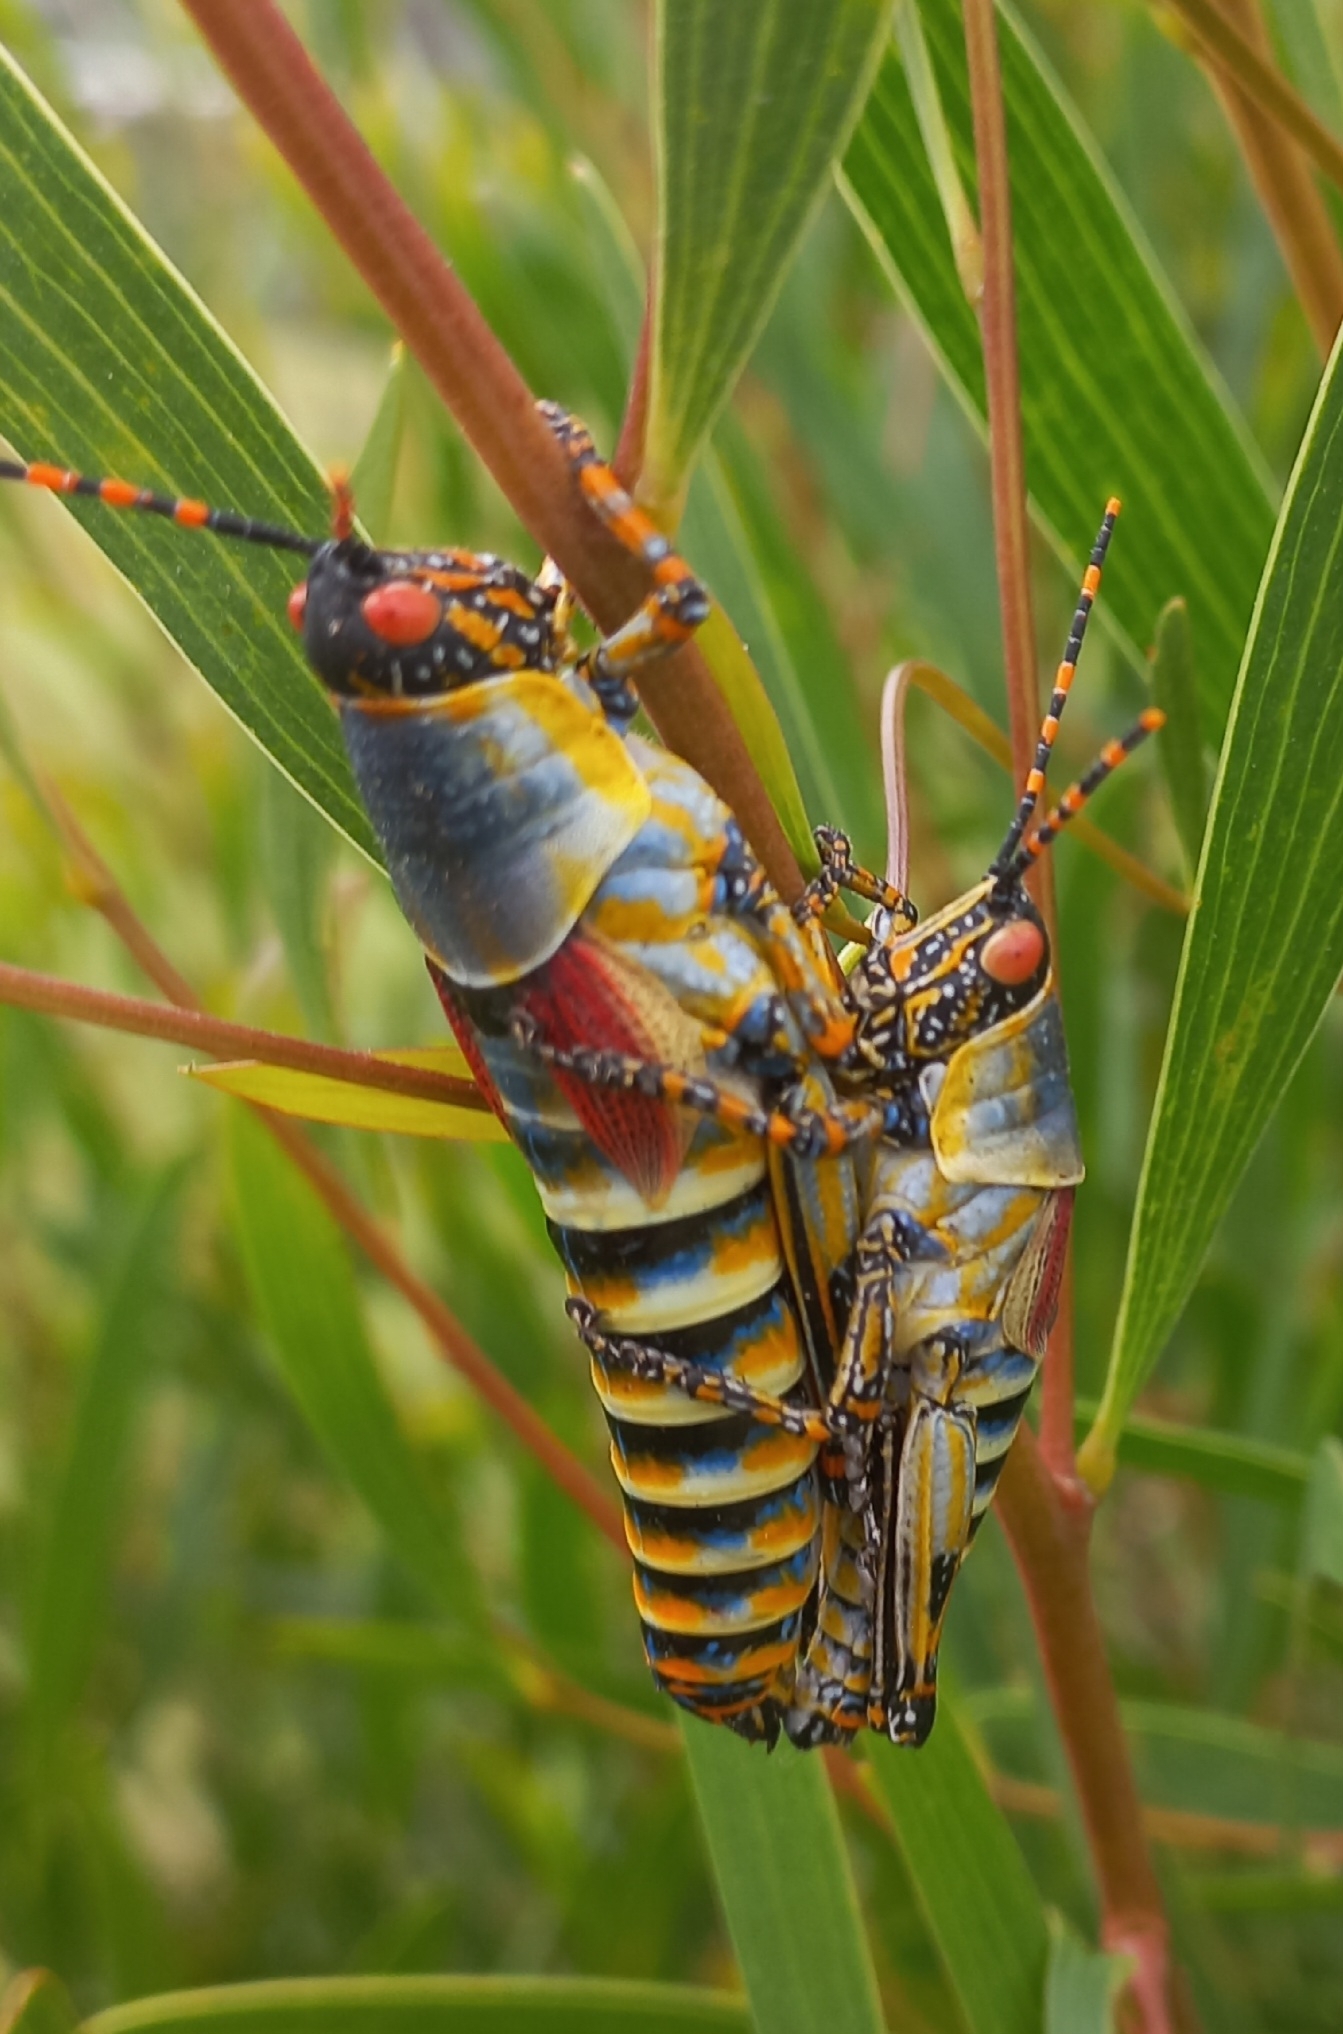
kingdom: Animalia
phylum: Arthropoda
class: Insecta
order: Orthoptera
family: Pyrgomorphidae
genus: Zonocerus
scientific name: Zonocerus elegans
